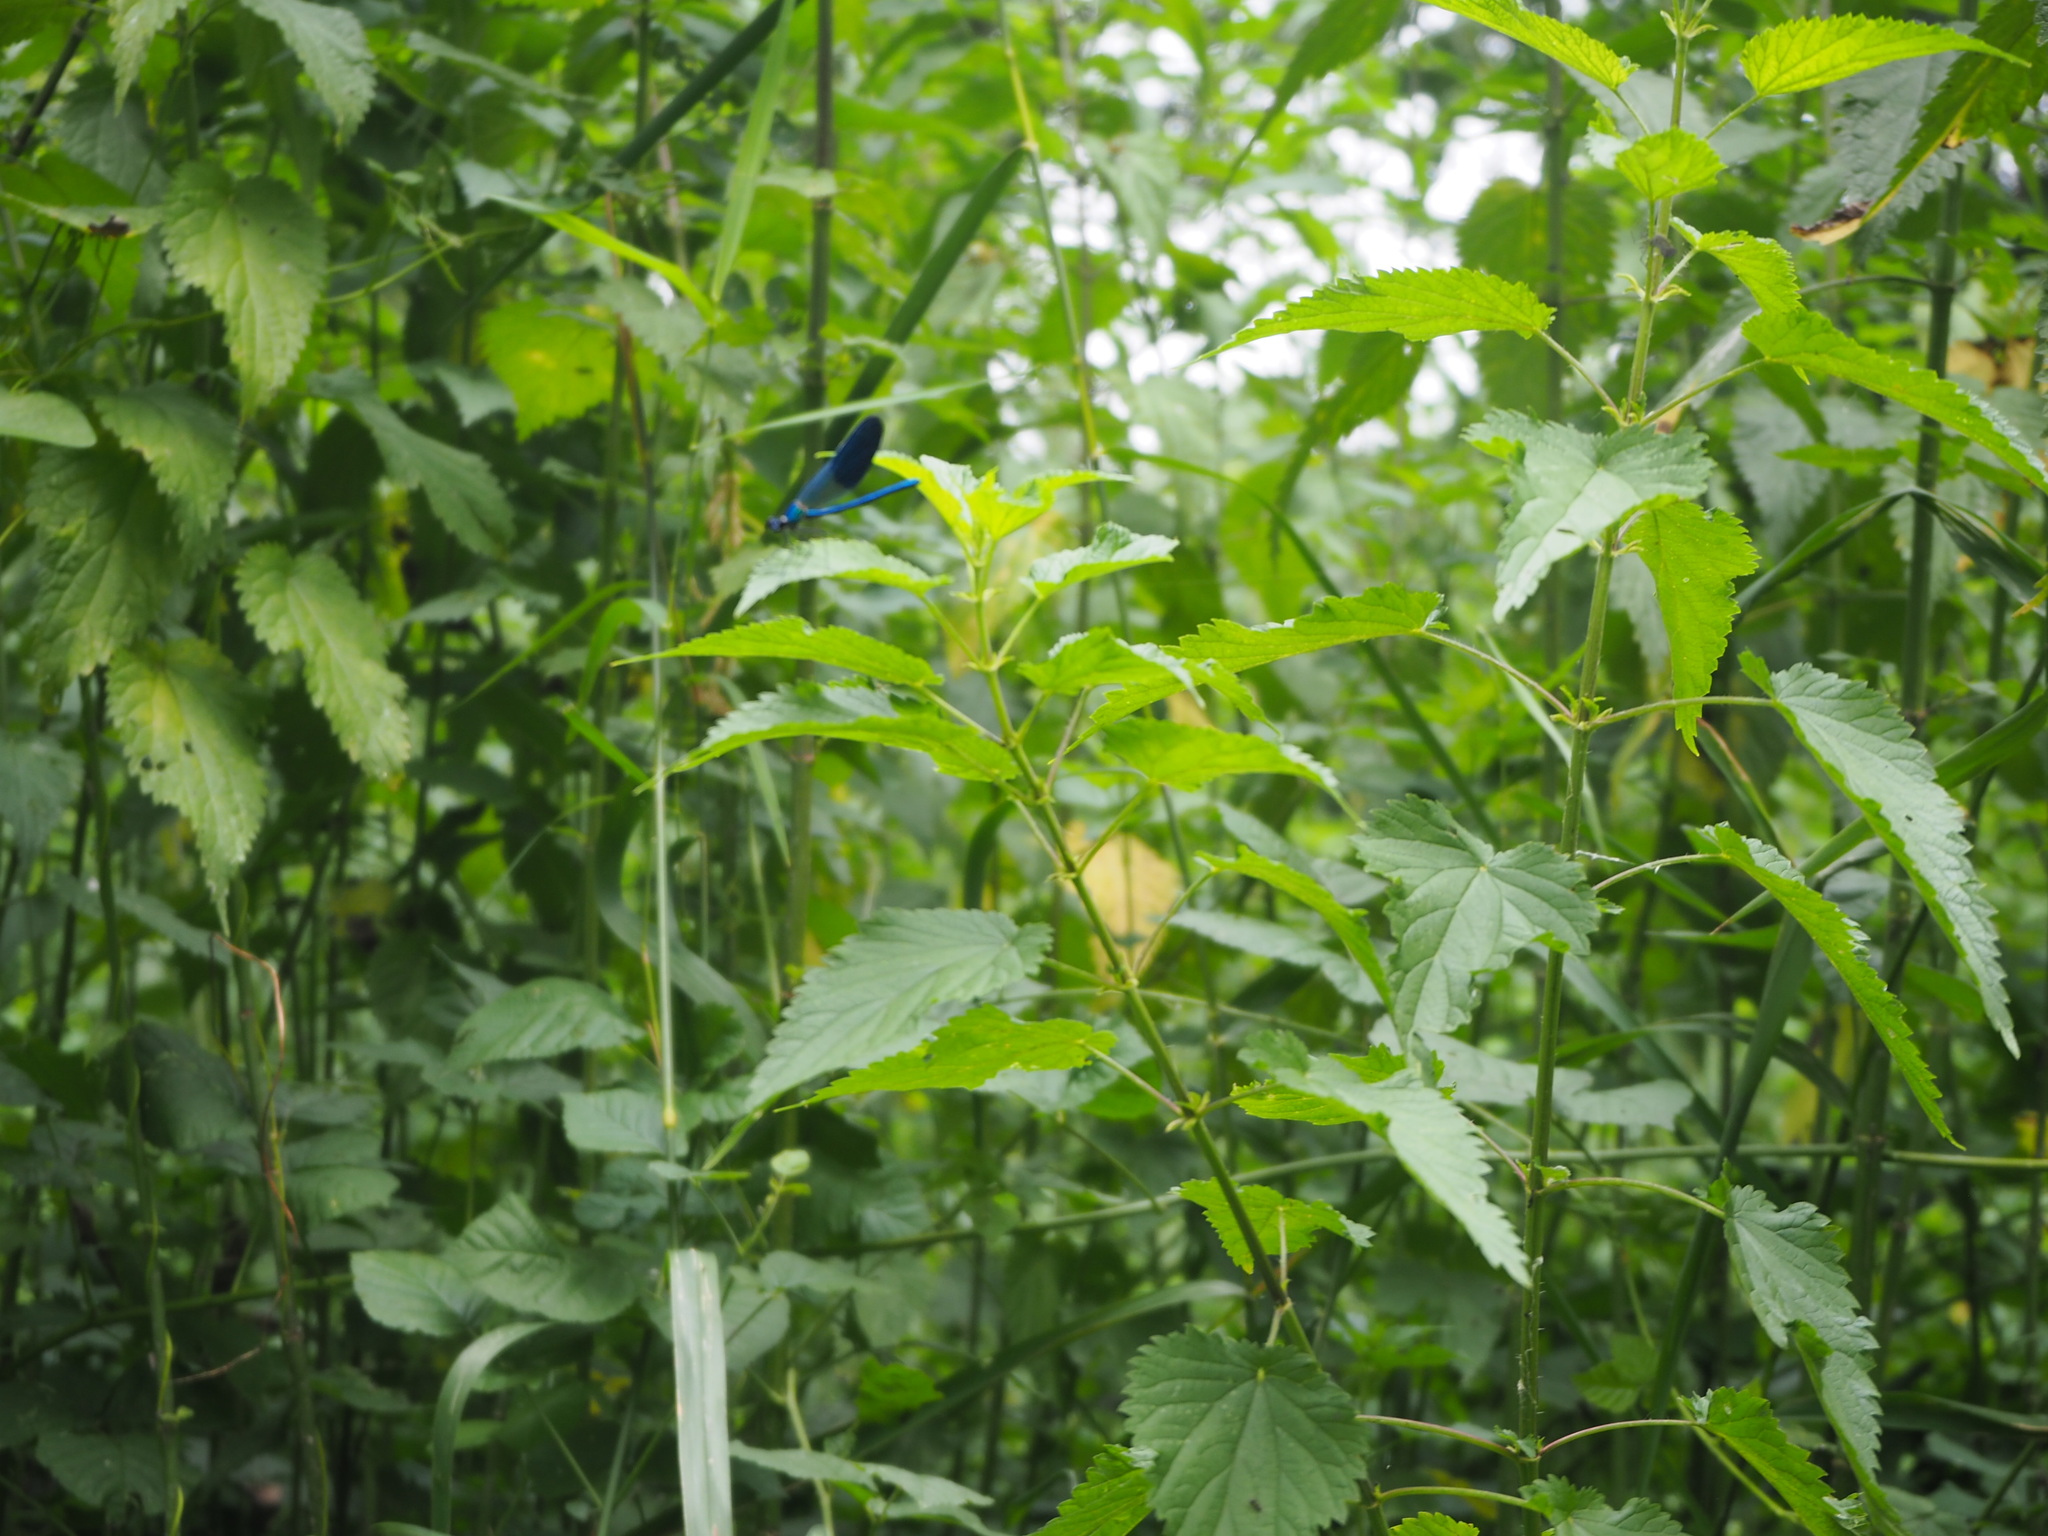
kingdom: Animalia
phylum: Arthropoda
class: Insecta
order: Odonata
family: Calopterygidae
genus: Calopteryx
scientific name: Calopteryx splendens
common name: Banded demoiselle
